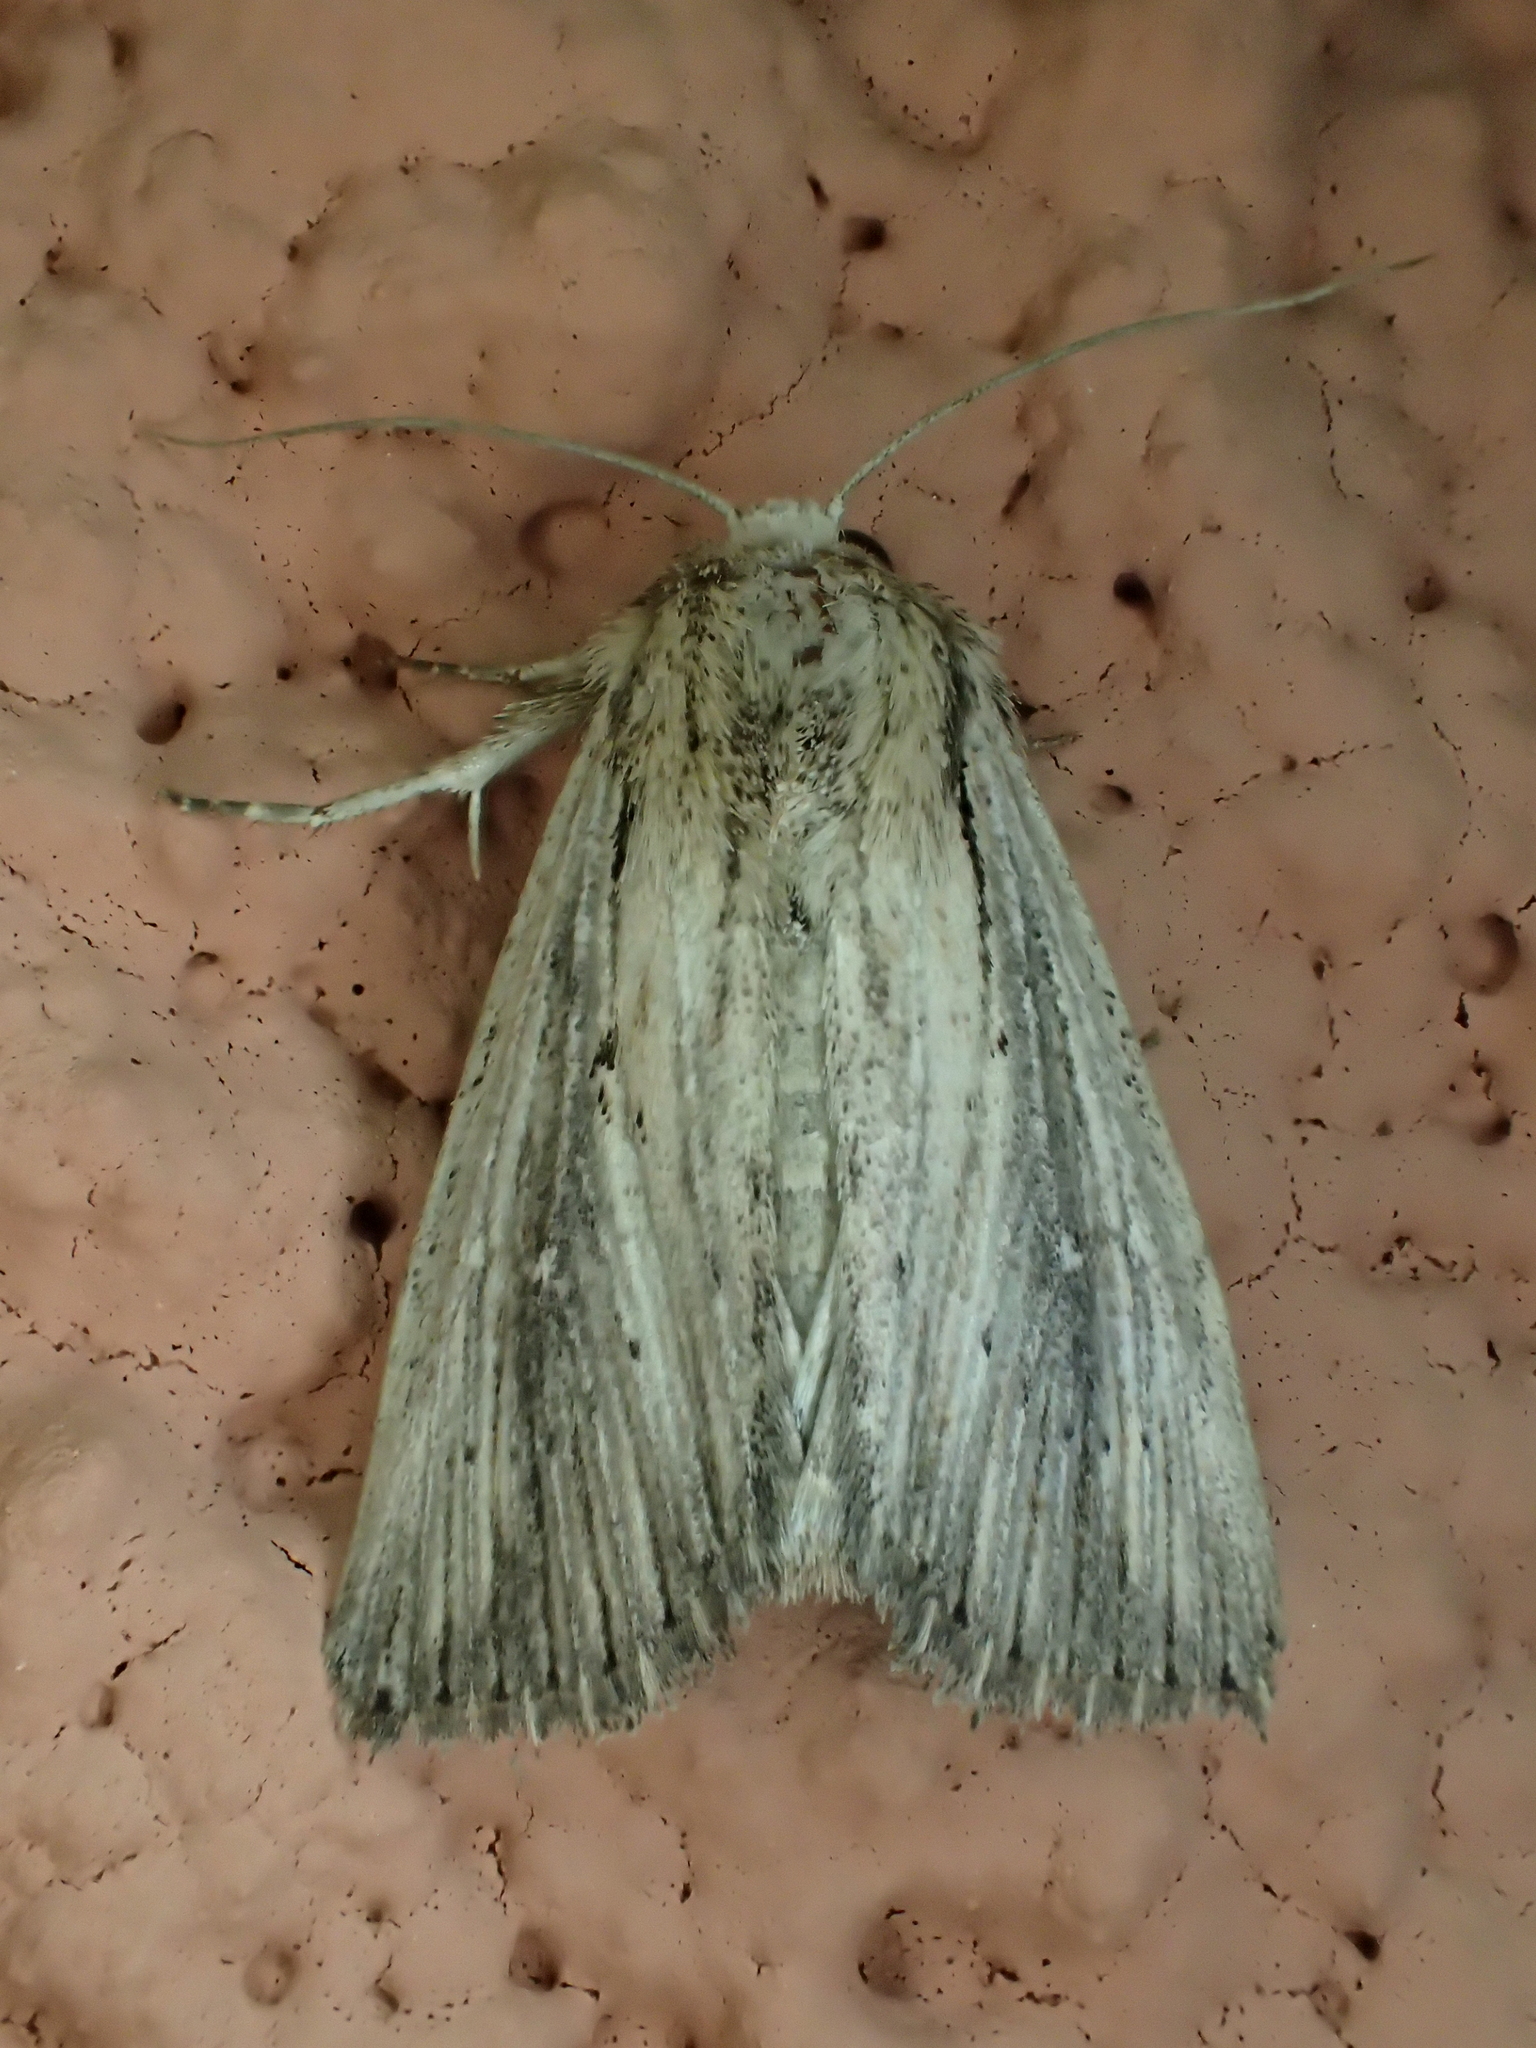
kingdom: Animalia
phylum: Arthropoda
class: Insecta
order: Lepidoptera
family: Noctuidae
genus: Leucania
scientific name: Leucania putrescens
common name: Devonshire wainscot
